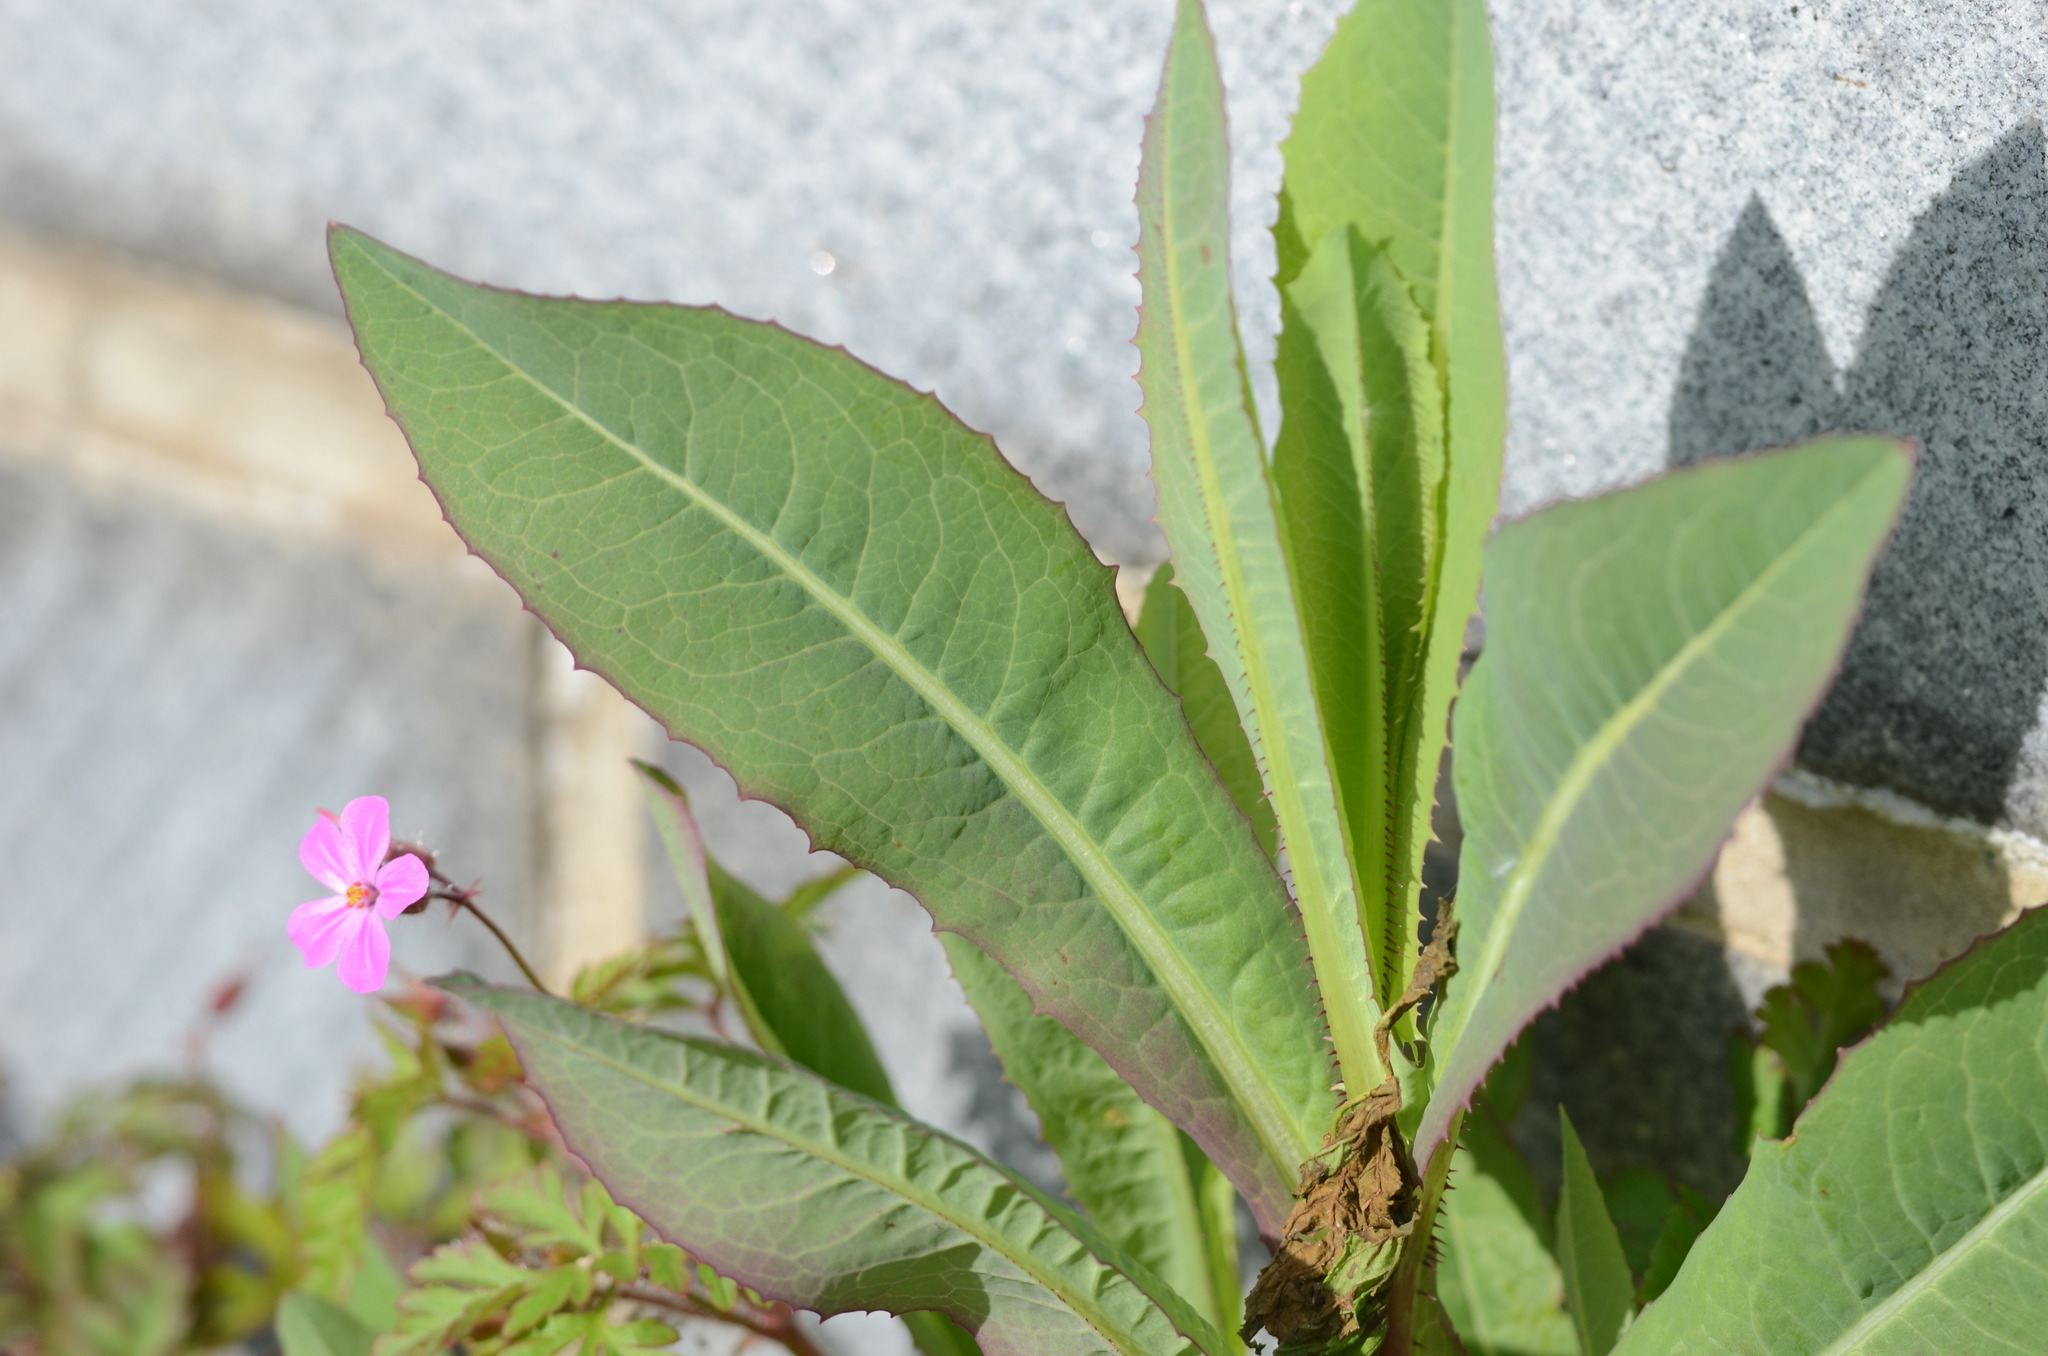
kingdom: Plantae
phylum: Tracheophyta
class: Magnoliopsida
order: Asterales
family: Asteraceae
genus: Lactuca
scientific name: Lactuca serriola
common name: Prickly lettuce
